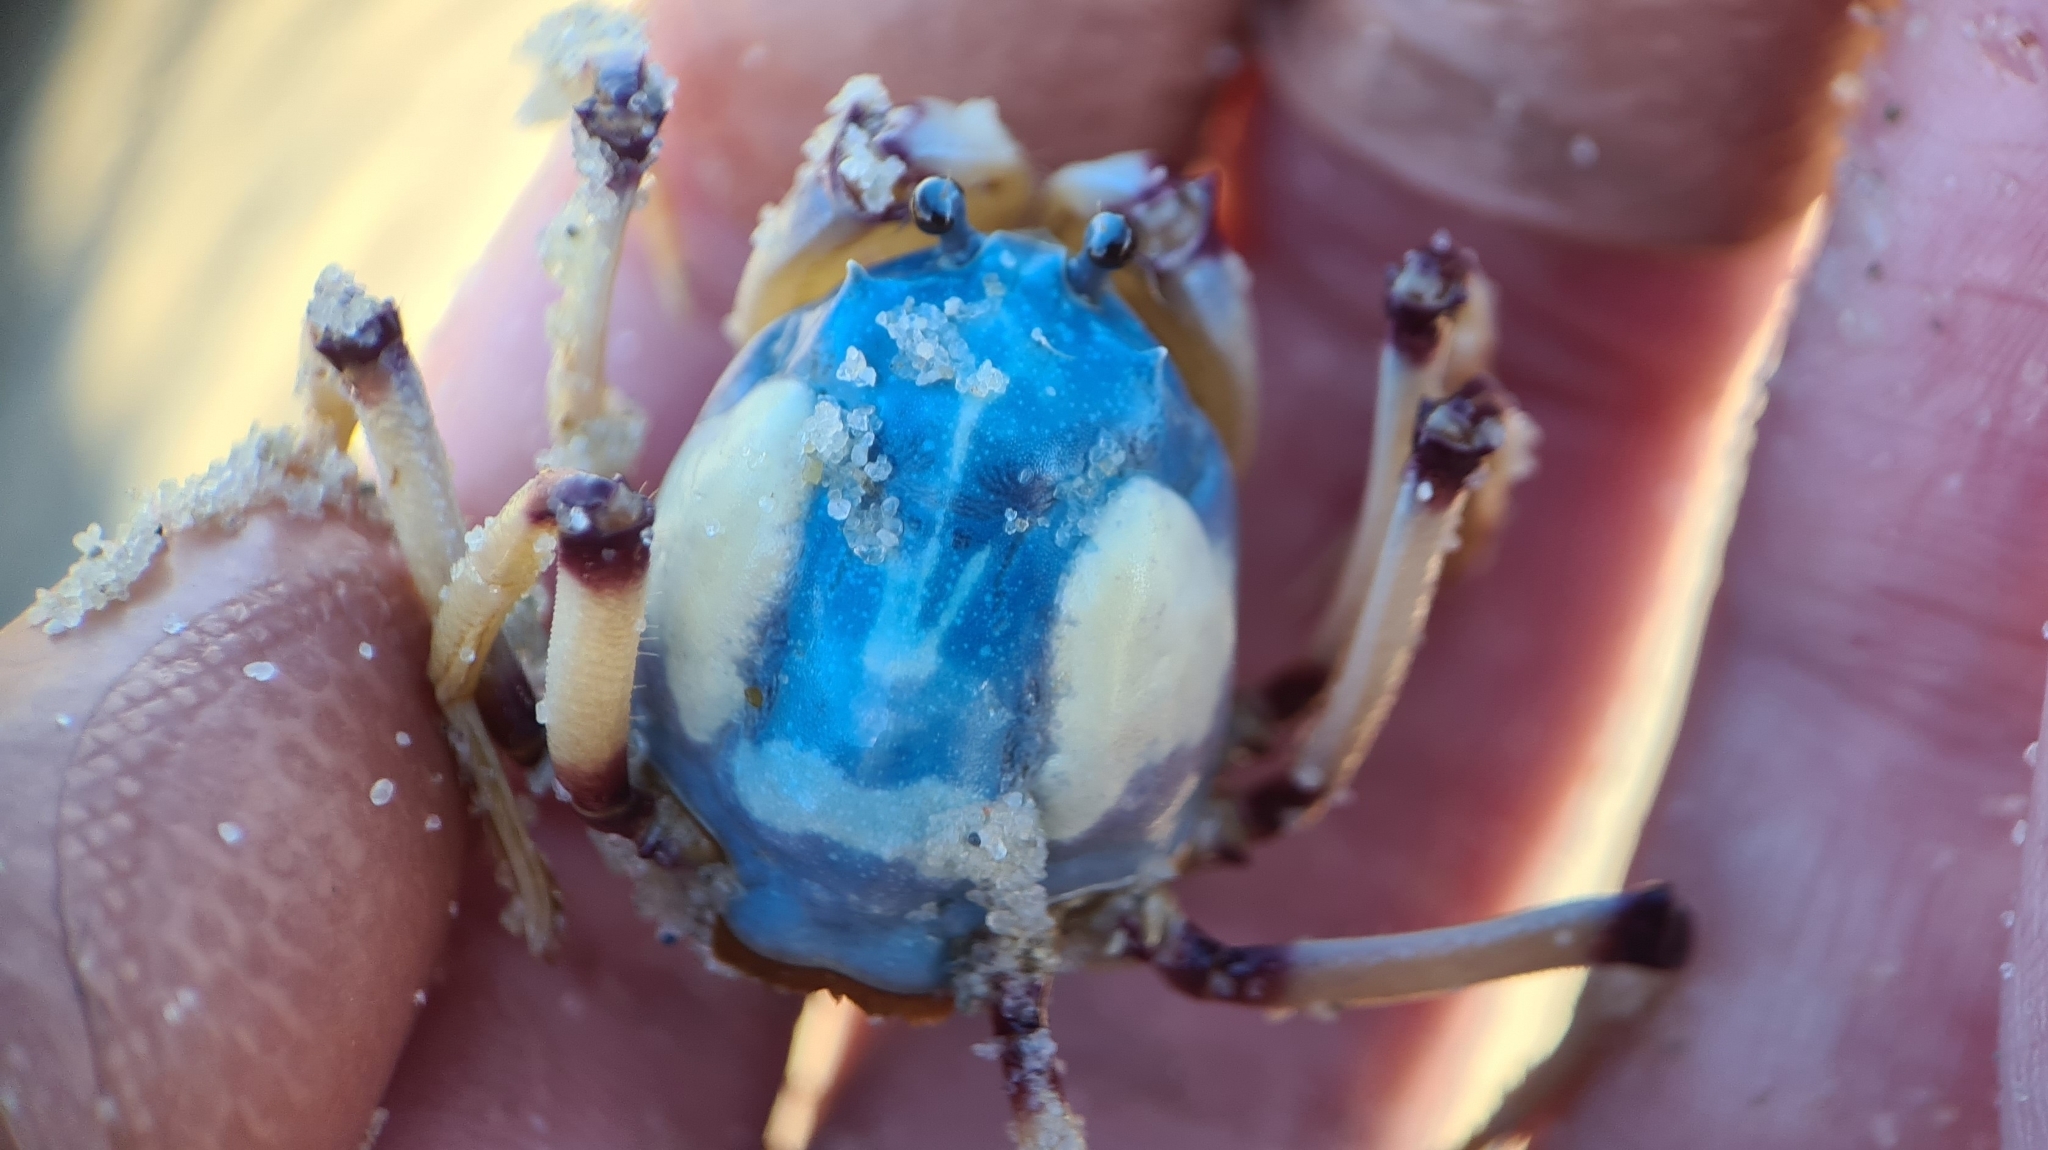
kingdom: Animalia
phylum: Arthropoda
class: Malacostraca
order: Decapoda
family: Mictyridae
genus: Mictyris
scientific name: Mictyris longicarpus
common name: Light-blue soldier crab
